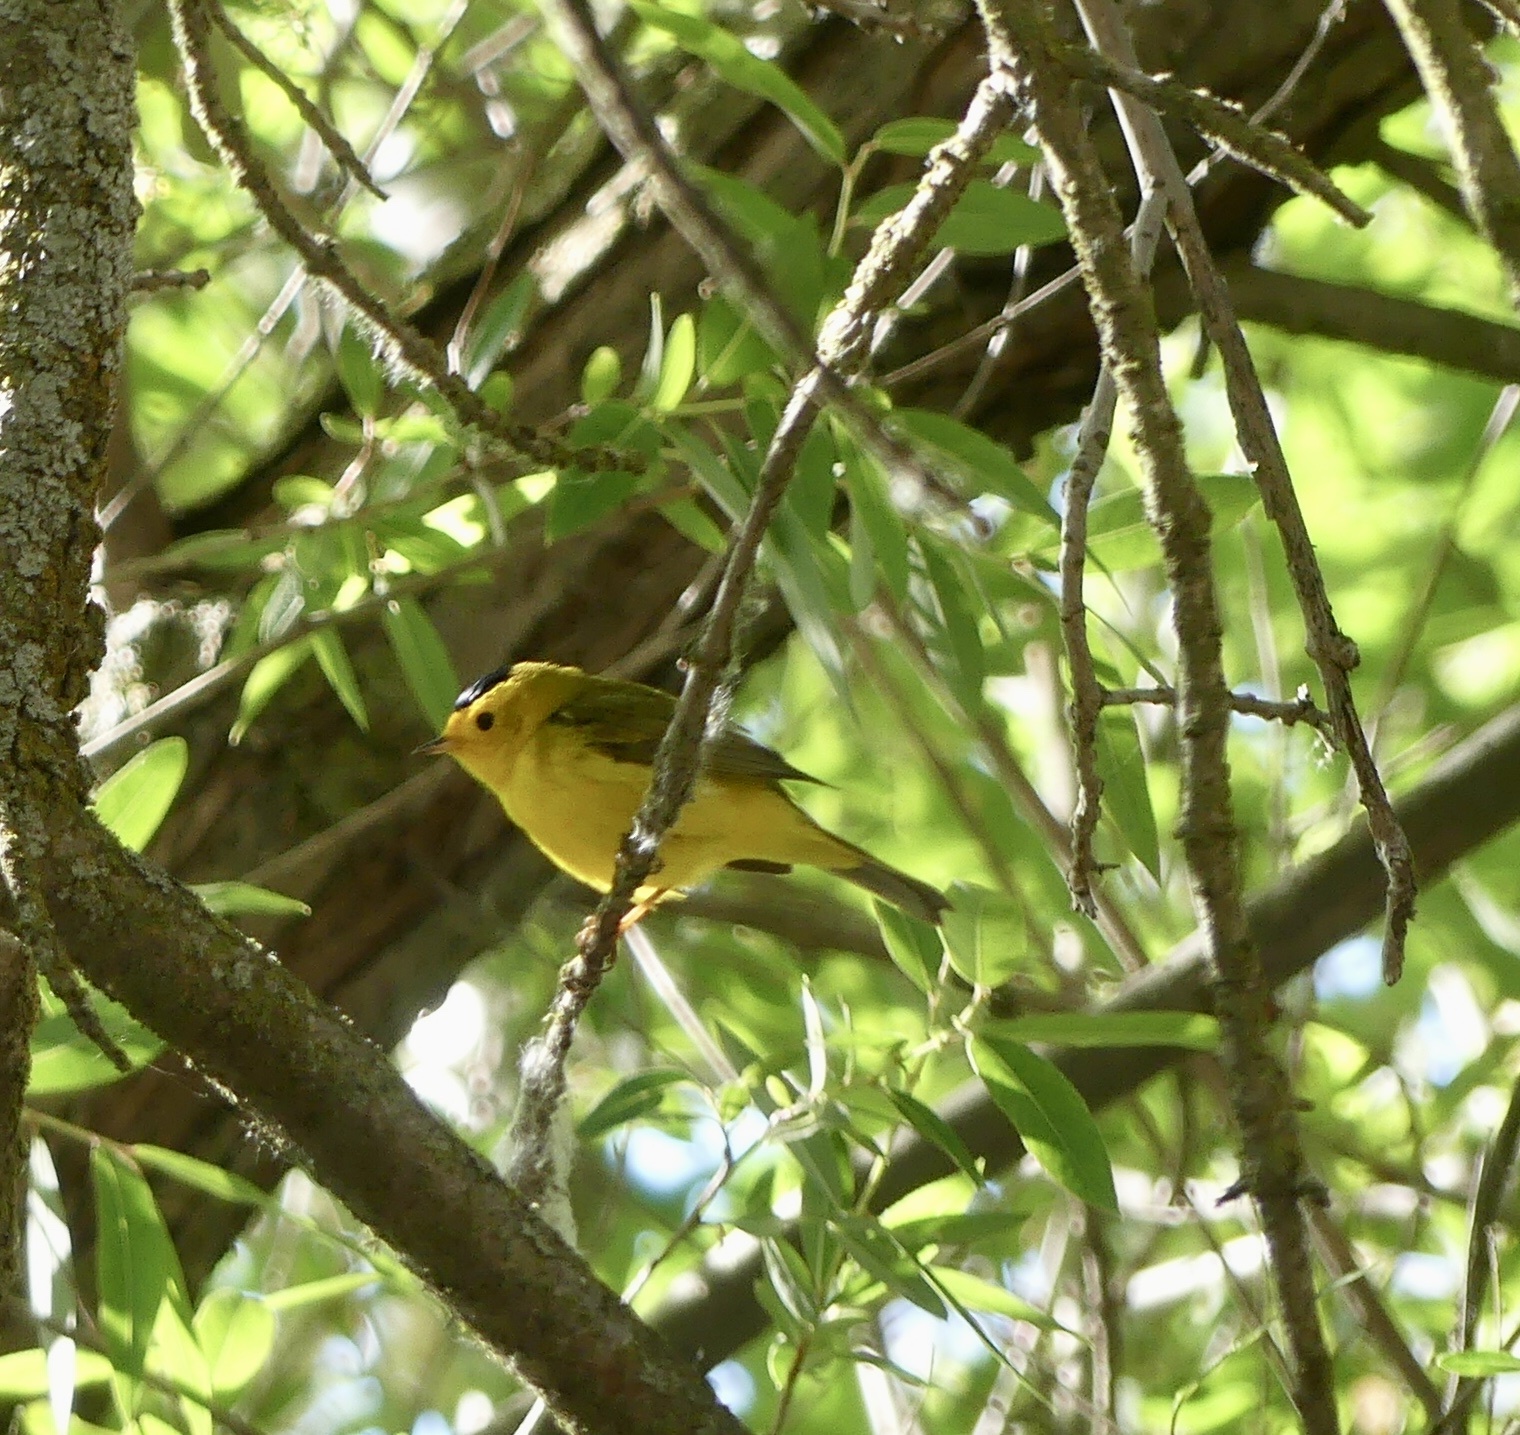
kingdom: Animalia
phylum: Chordata
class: Aves
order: Passeriformes
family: Parulidae
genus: Cardellina
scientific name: Cardellina pusilla
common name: Wilson's warbler
